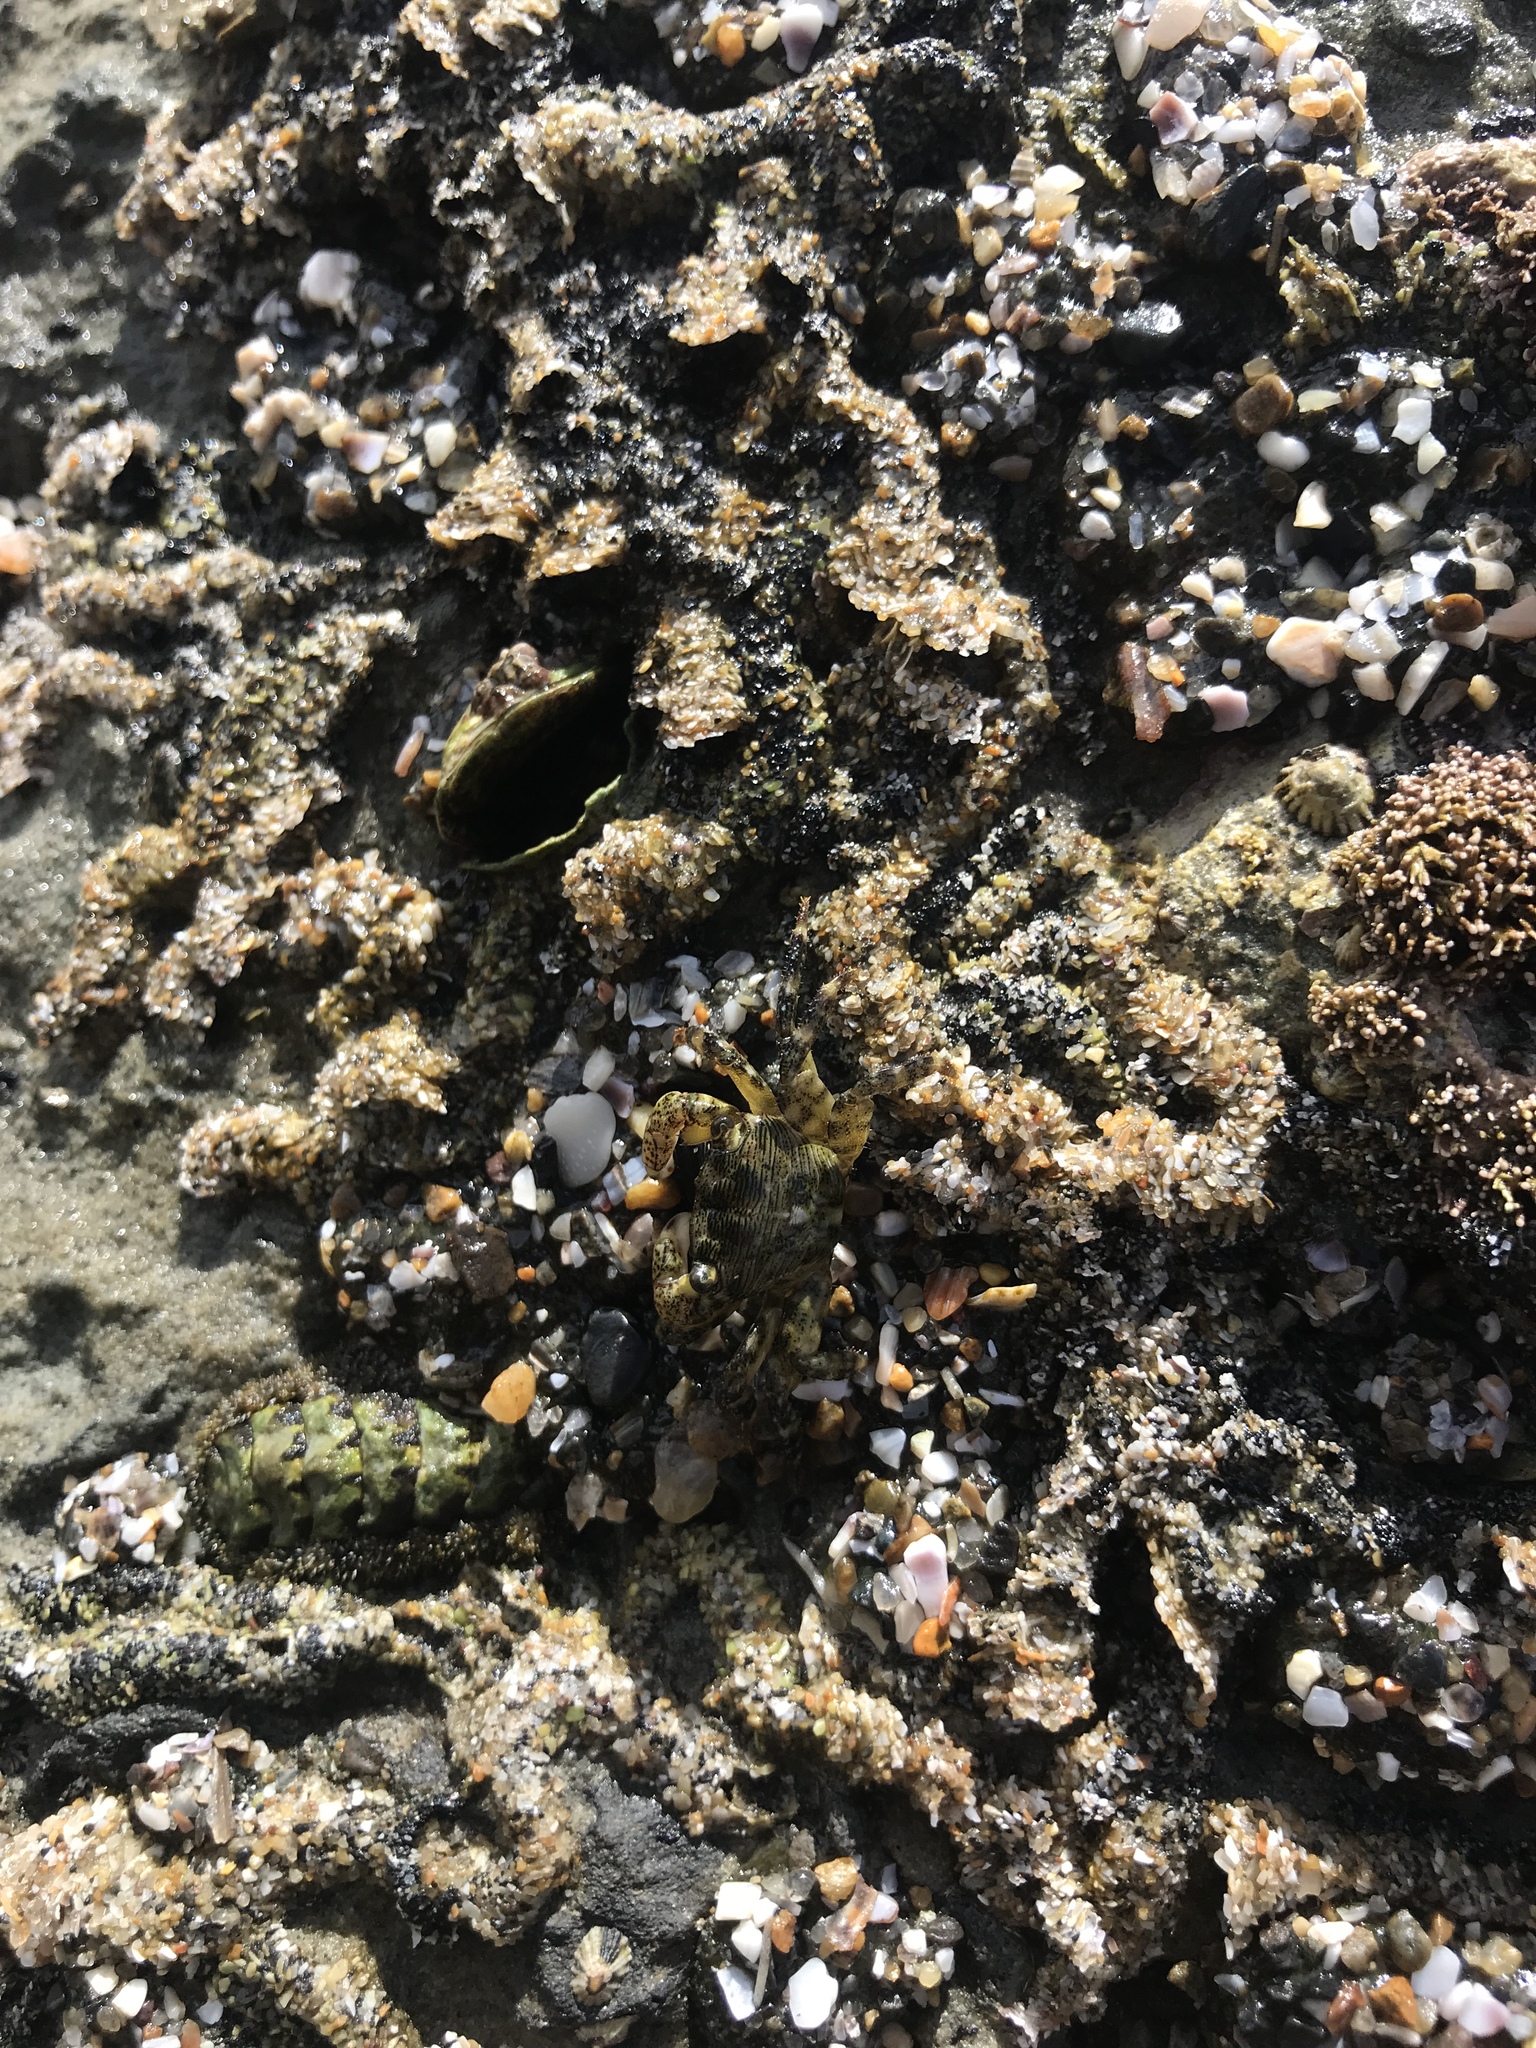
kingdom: Animalia
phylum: Arthropoda
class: Malacostraca
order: Decapoda
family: Grapsidae
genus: Pachygrapsus
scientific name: Pachygrapsus crassipes
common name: Striped shore crab
